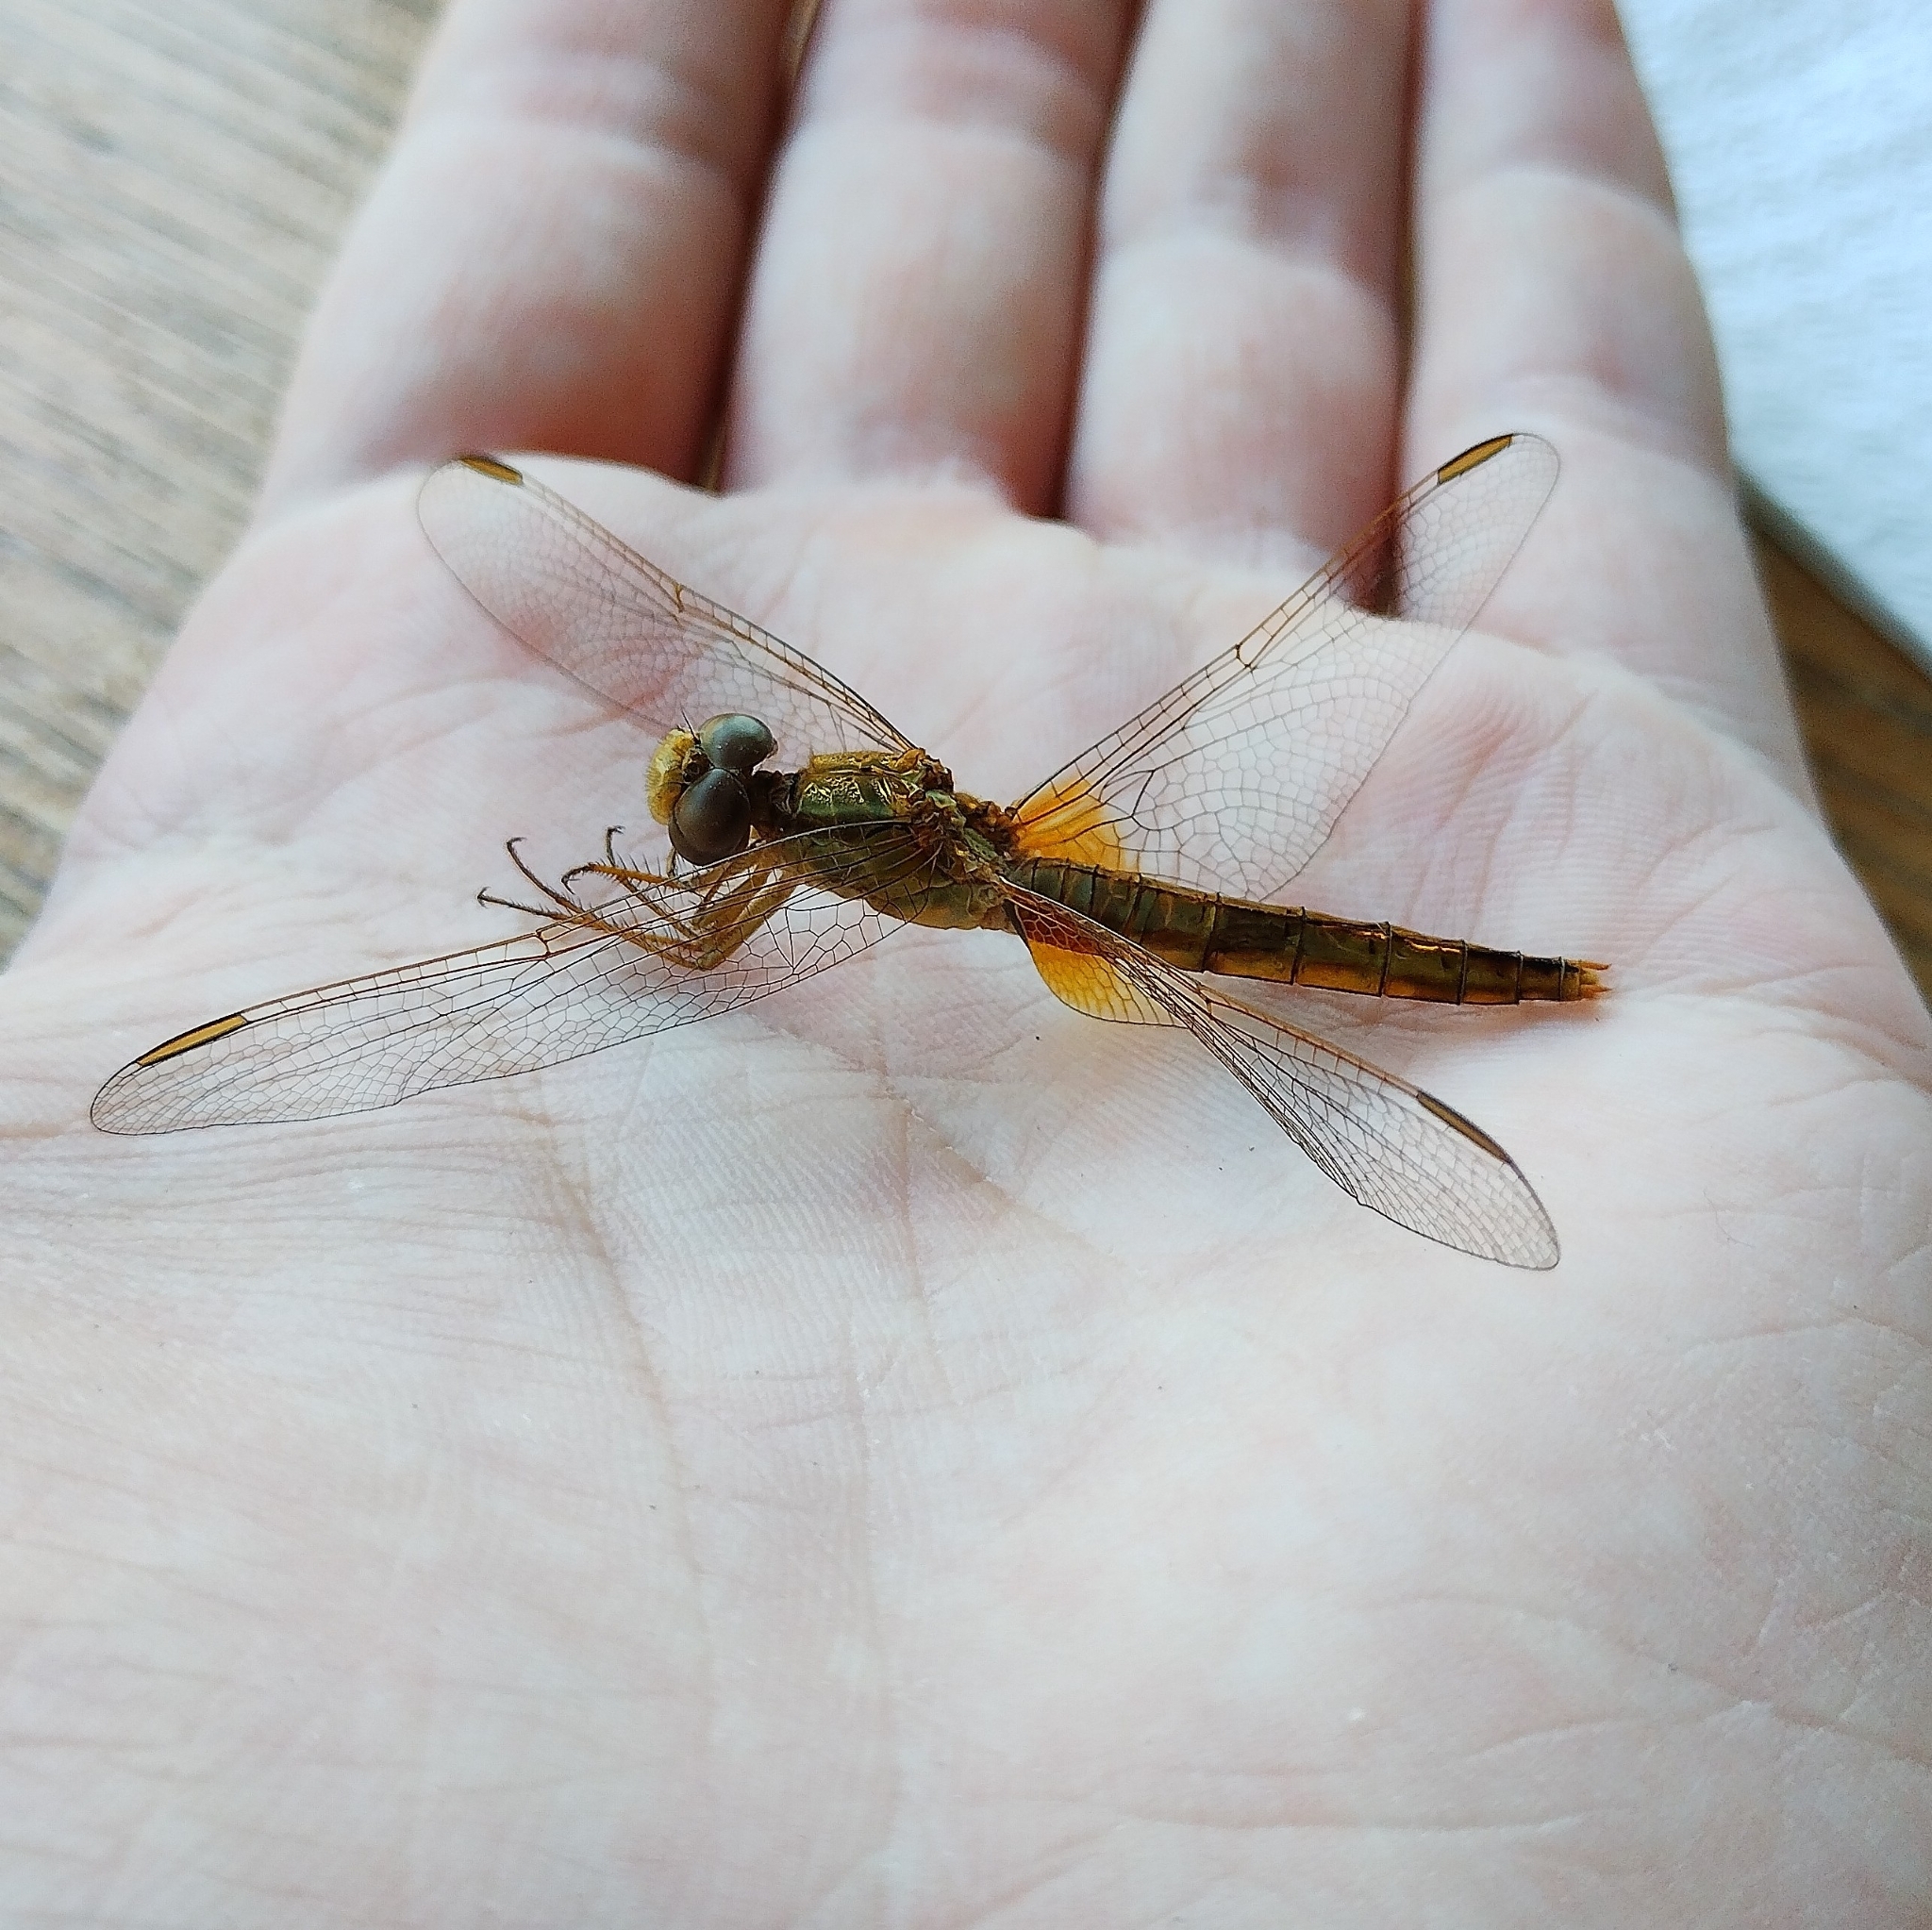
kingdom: Animalia
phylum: Arthropoda
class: Insecta
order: Odonata
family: Libellulidae
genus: Crocothemis
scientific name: Crocothemis erythraea
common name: Scarlet dragonfly
